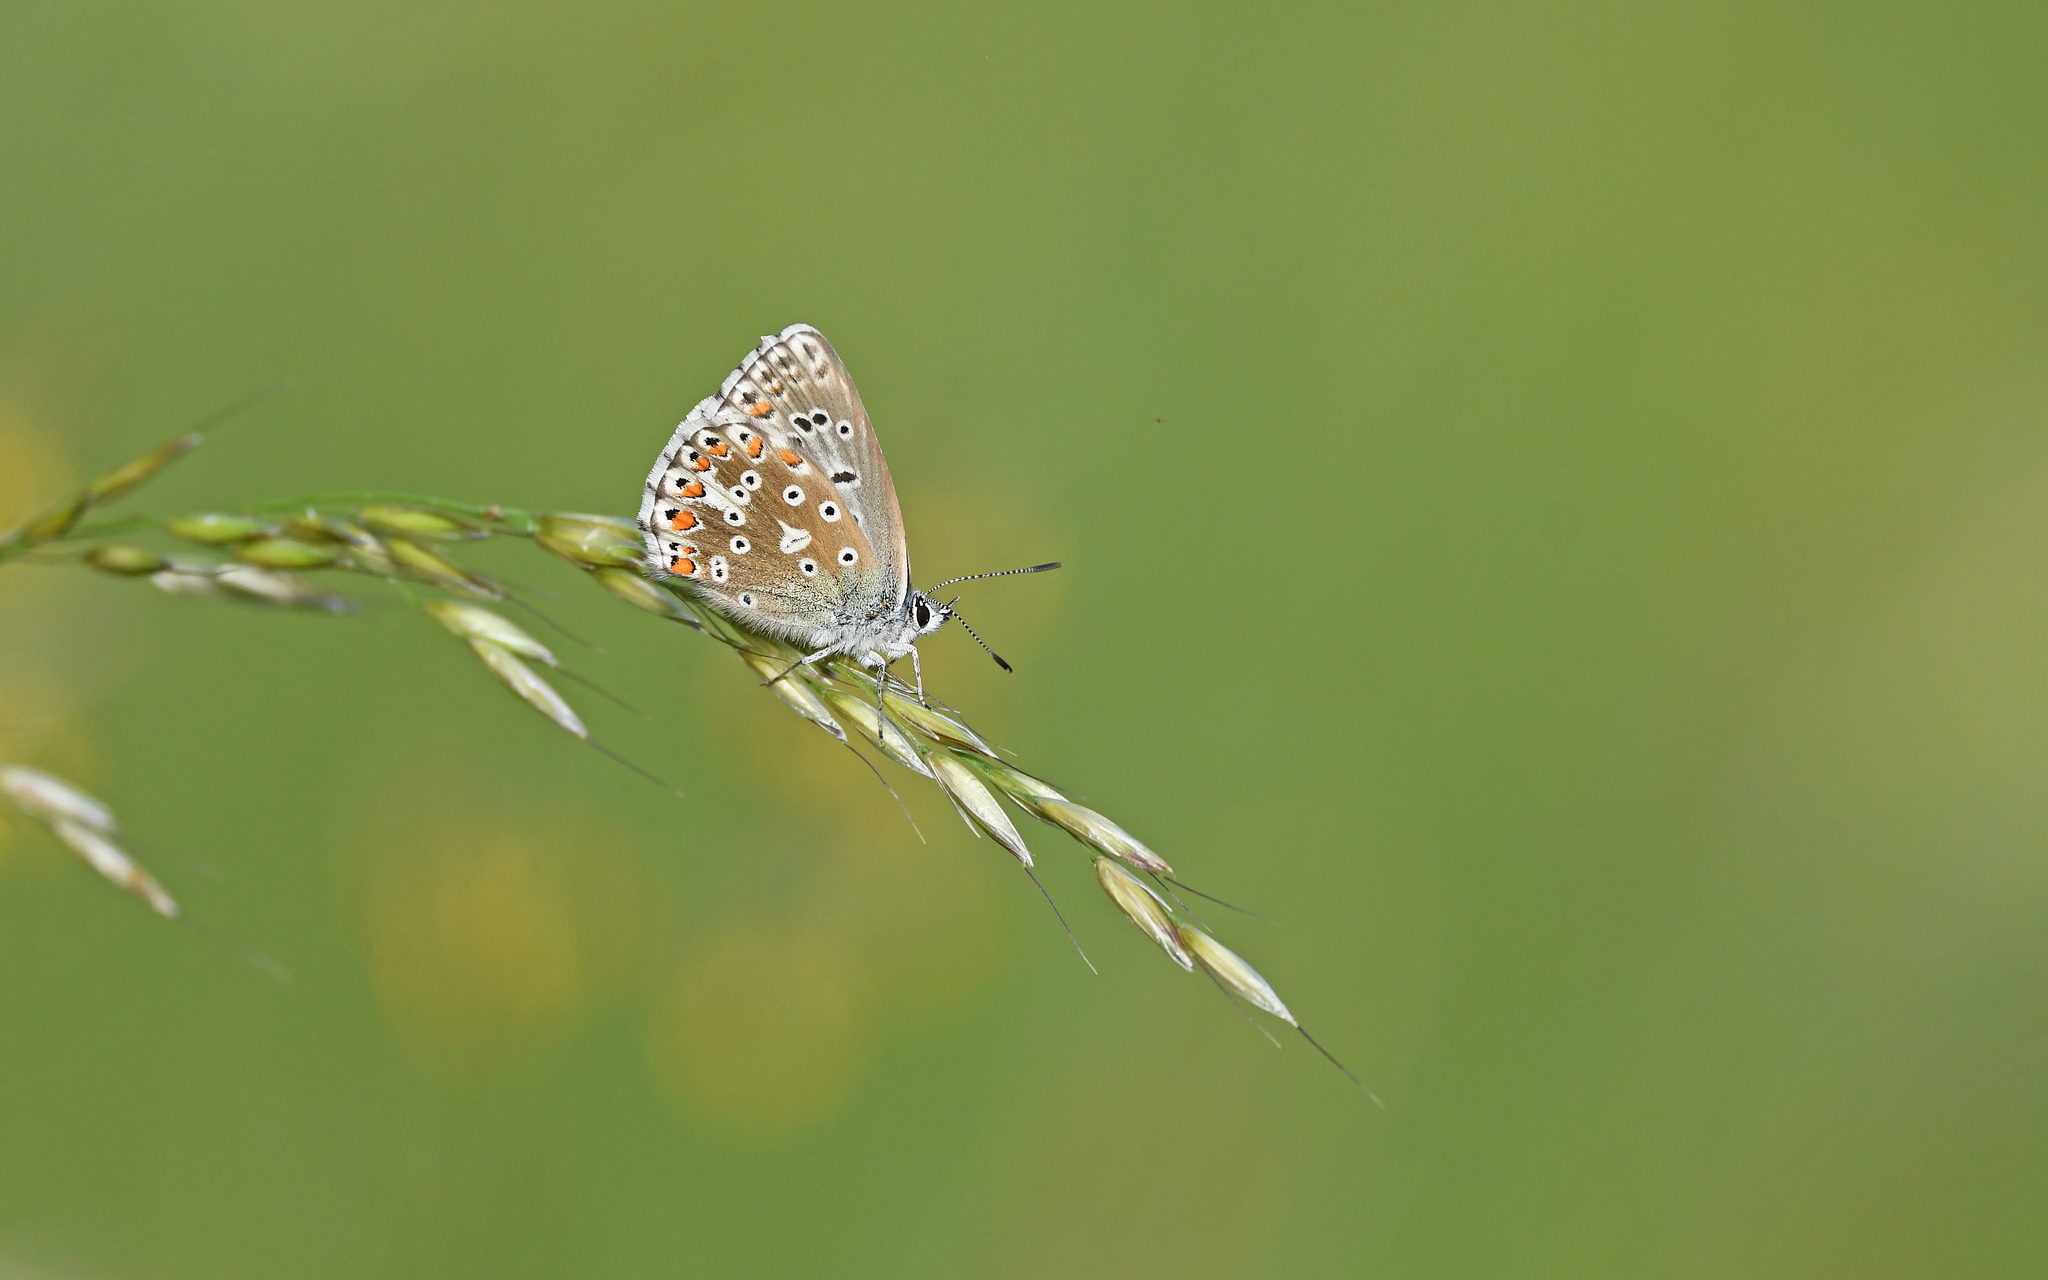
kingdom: Animalia
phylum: Arthropoda
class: Insecta
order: Lepidoptera
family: Lycaenidae
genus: Lysandra
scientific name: Lysandra bellargus
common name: Adonis blue
